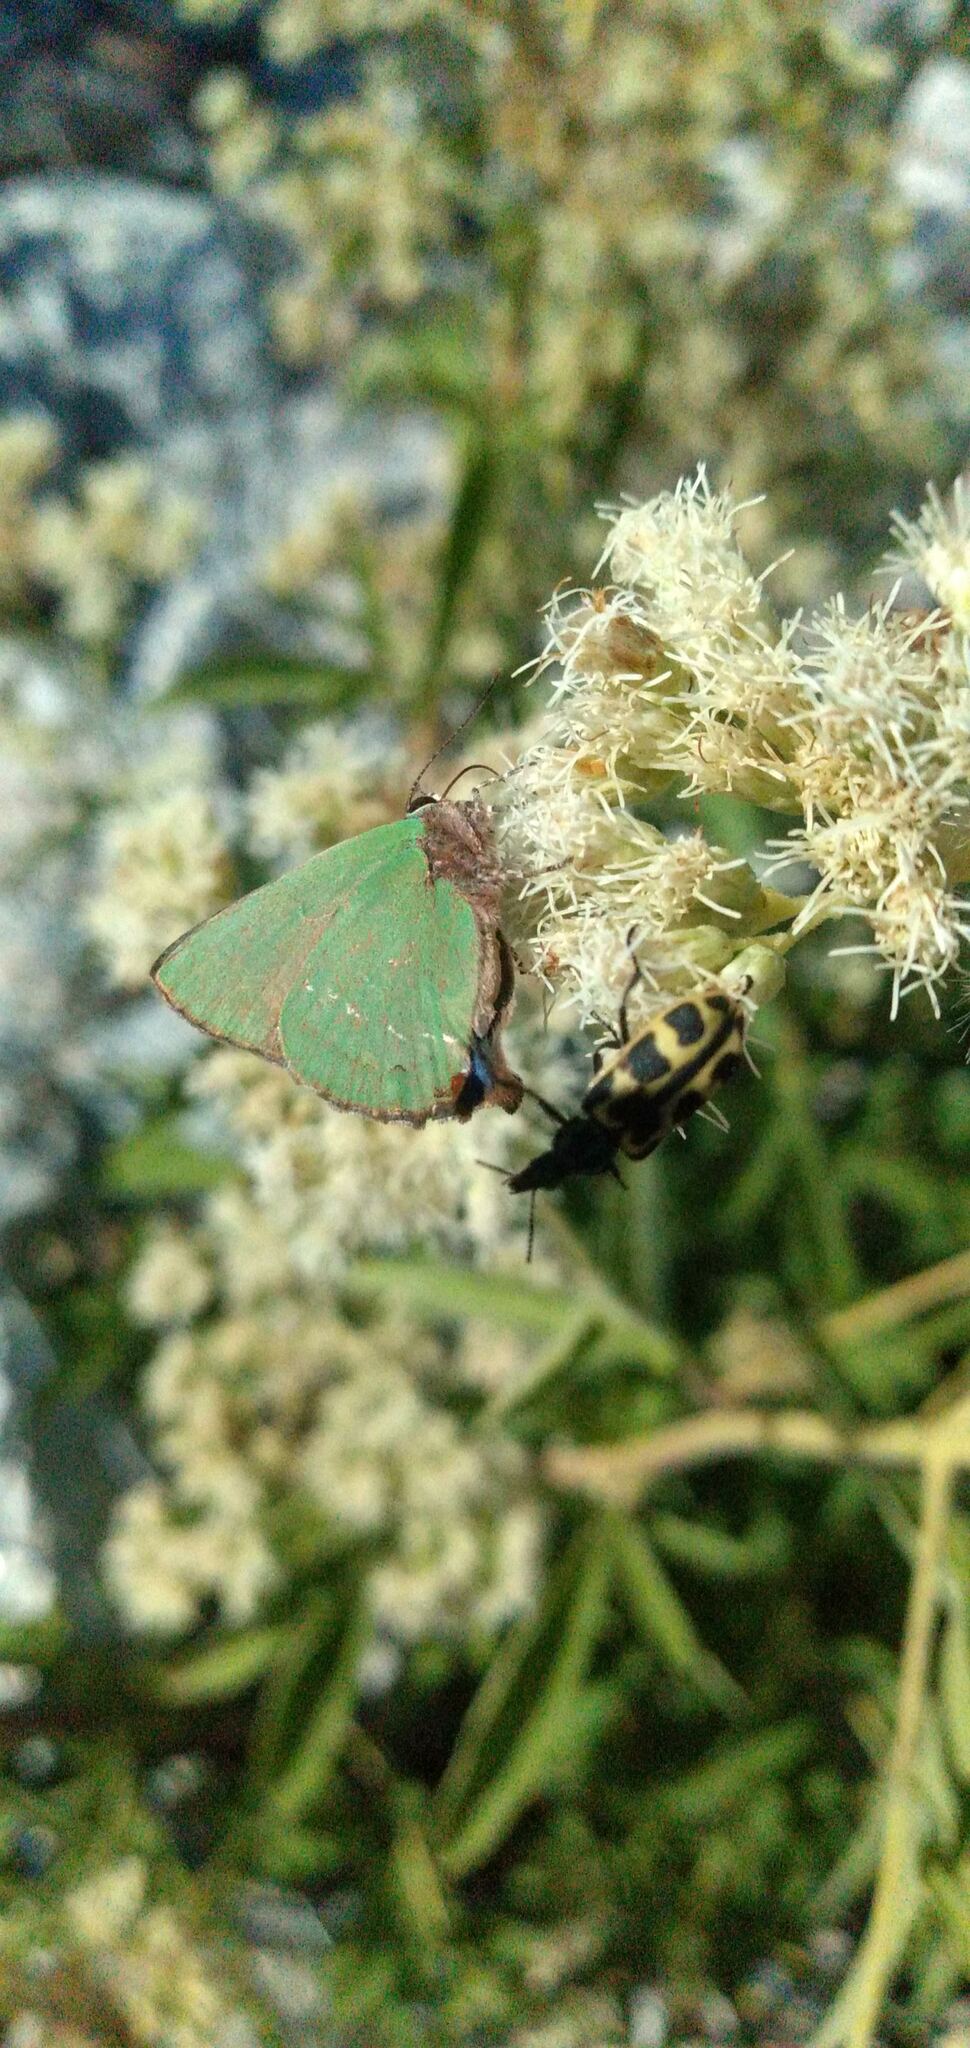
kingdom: Animalia
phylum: Arthropoda
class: Insecta
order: Lepidoptera
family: Lycaenidae
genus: Cyanophrys
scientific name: Cyanophrys
